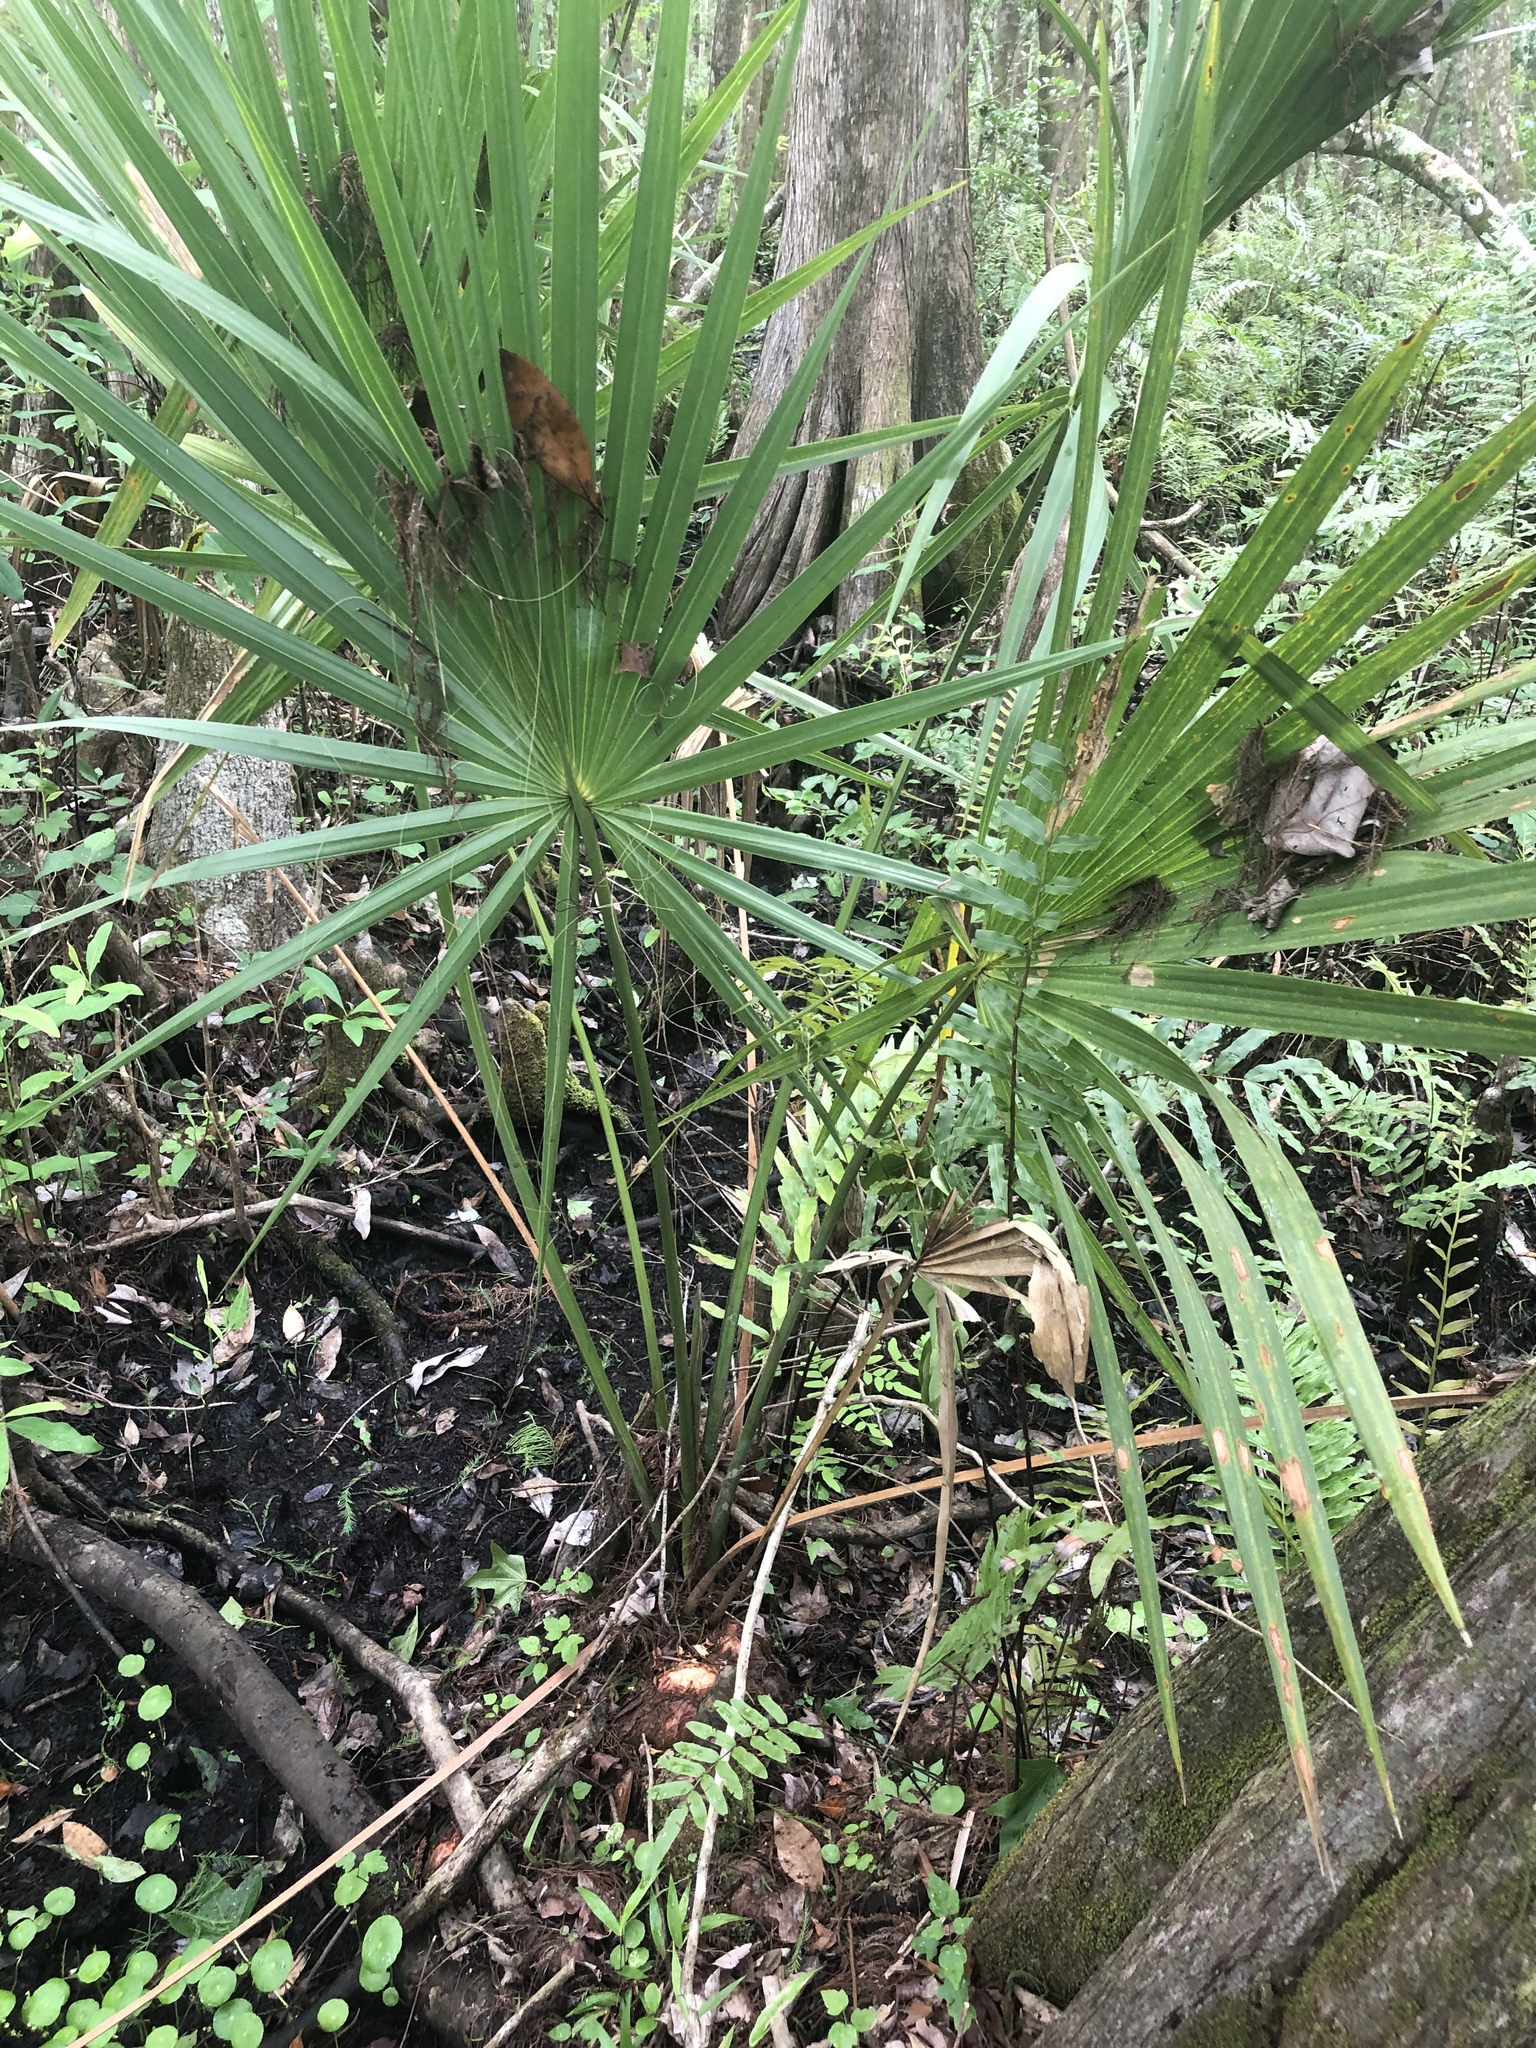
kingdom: Plantae
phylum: Tracheophyta
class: Liliopsida
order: Arecales
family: Arecaceae
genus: Sabal
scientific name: Sabal palmetto
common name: Blue palmetto
